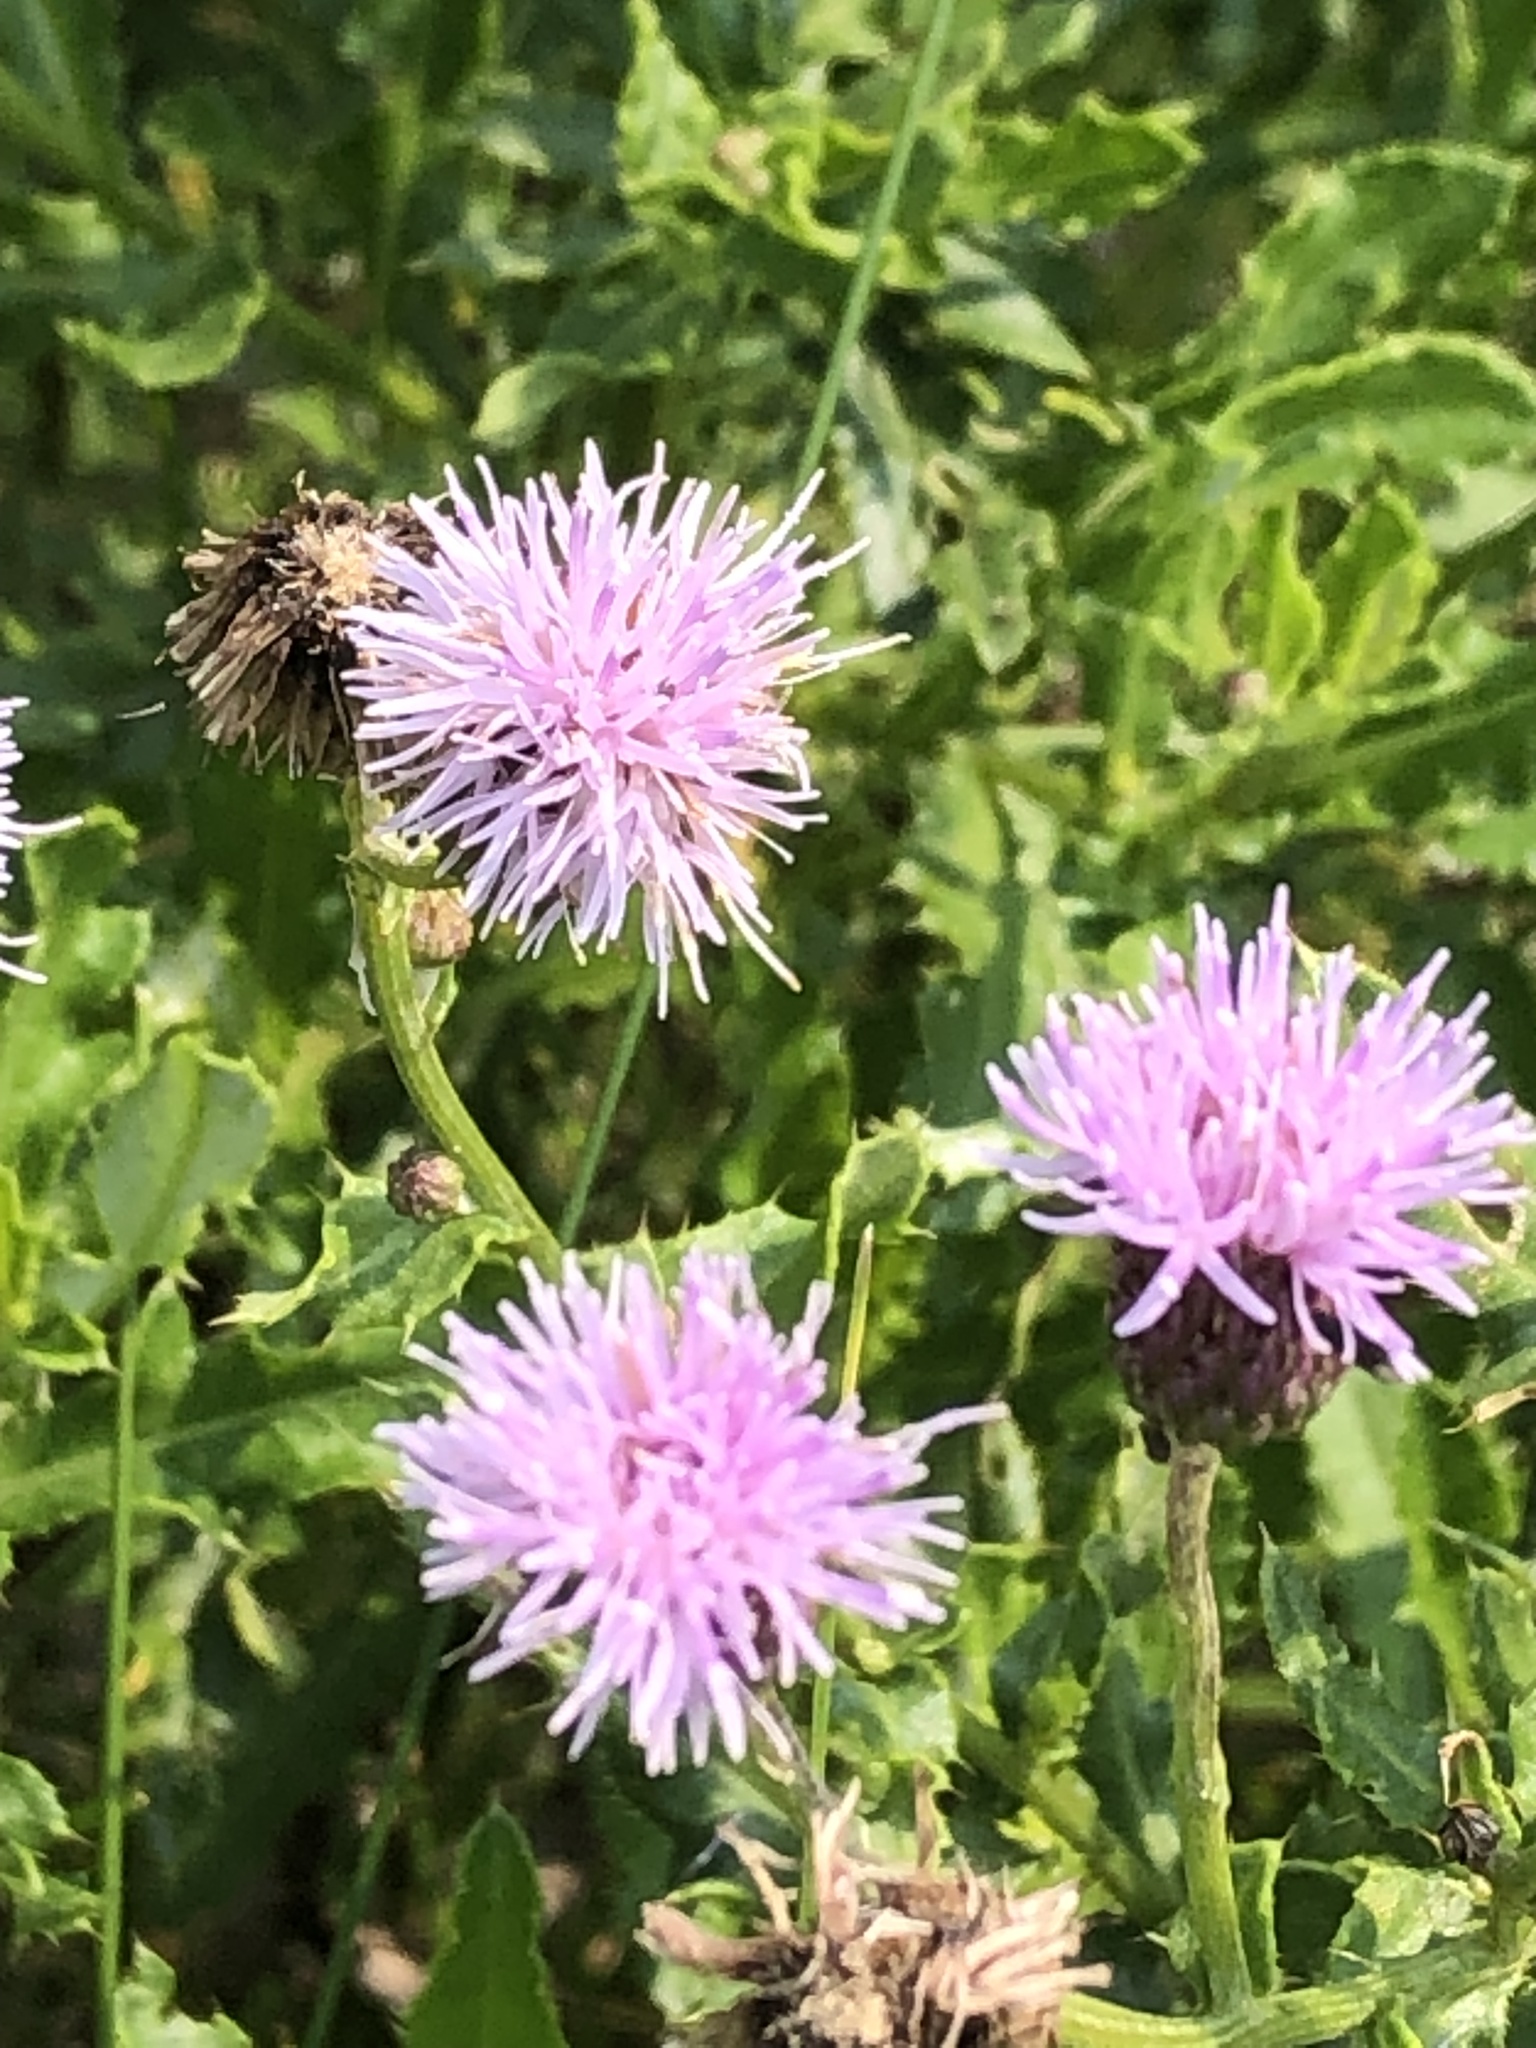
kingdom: Plantae
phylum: Tracheophyta
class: Magnoliopsida
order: Asterales
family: Asteraceae
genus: Cirsium
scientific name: Cirsium arvense
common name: Creeping thistle
